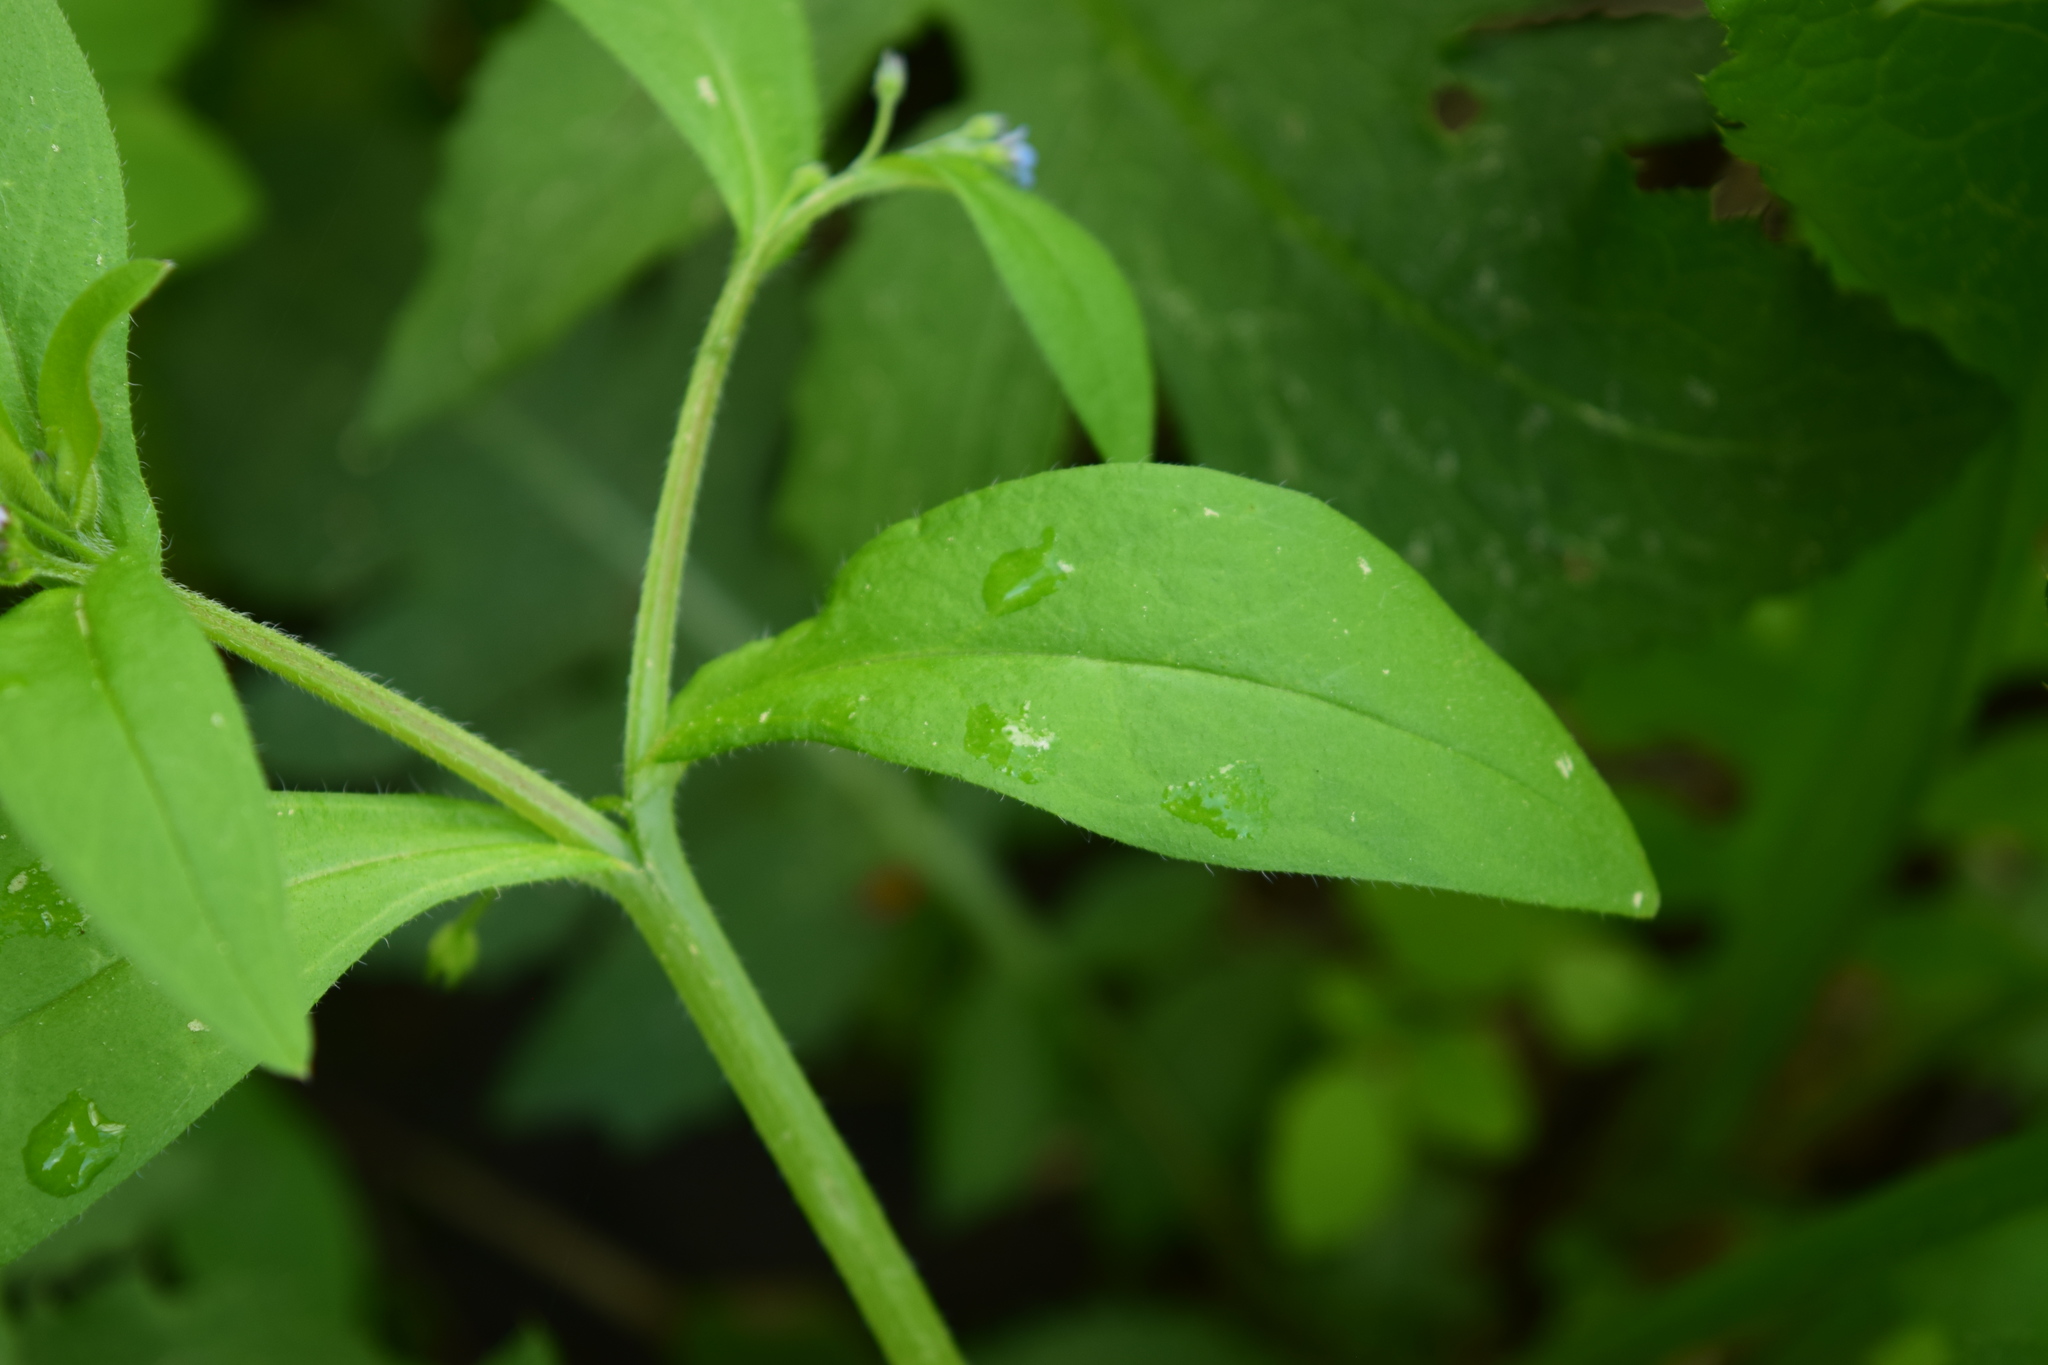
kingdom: Plantae
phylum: Tracheophyta
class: Magnoliopsida
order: Boraginales
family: Boraginaceae
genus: Myosotis
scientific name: Myosotis sparsiflora
